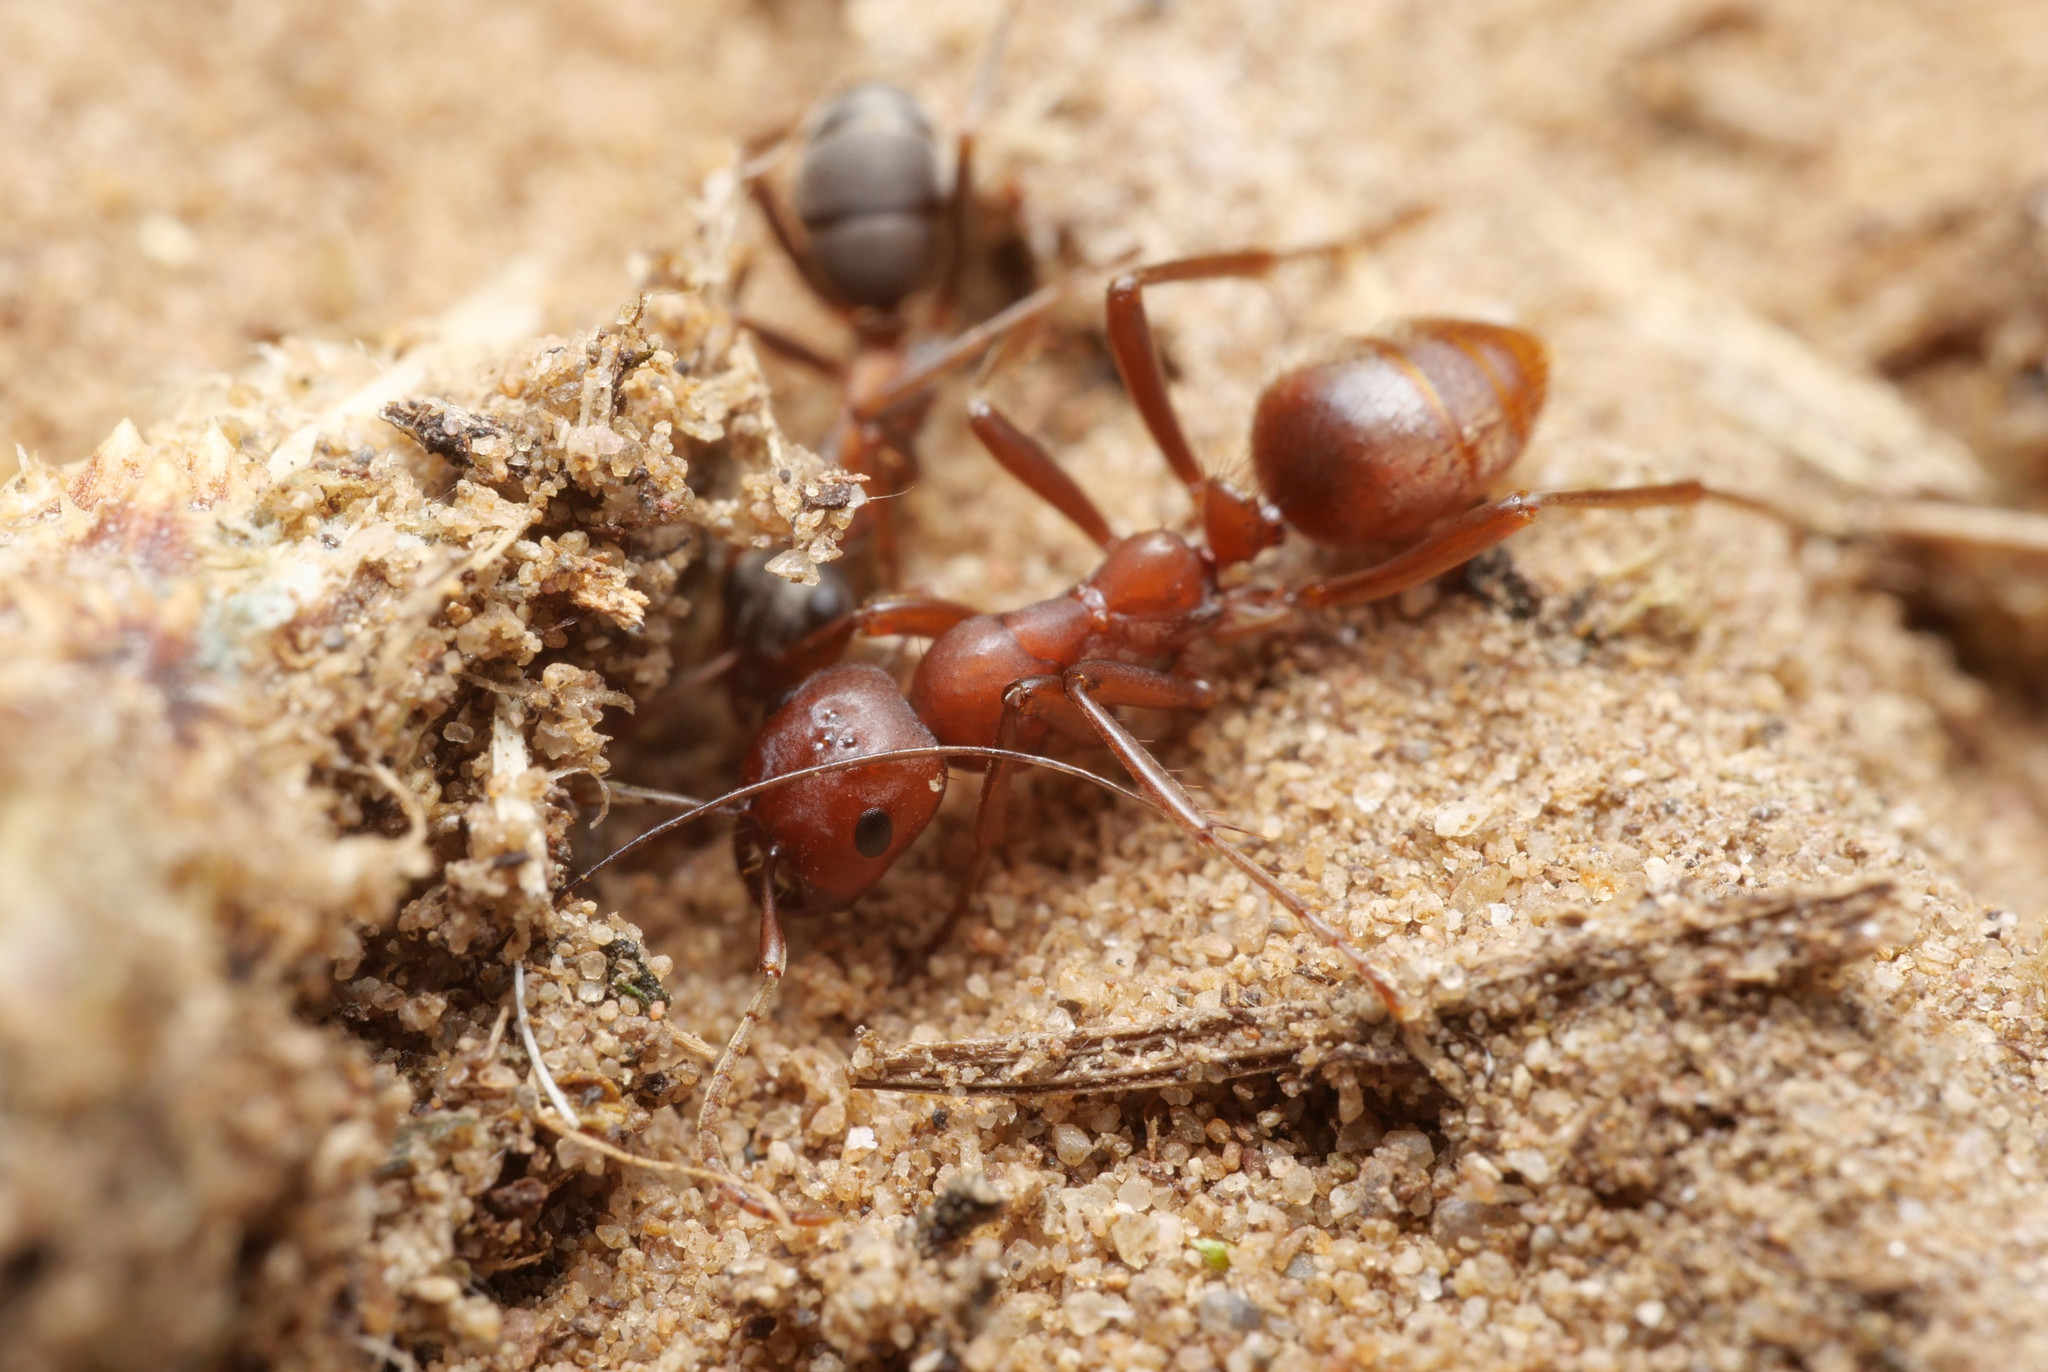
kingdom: Animalia
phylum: Arthropoda
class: Insecta
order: Hymenoptera
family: Formicidae
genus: Polyergus
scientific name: Polyergus rufescens
